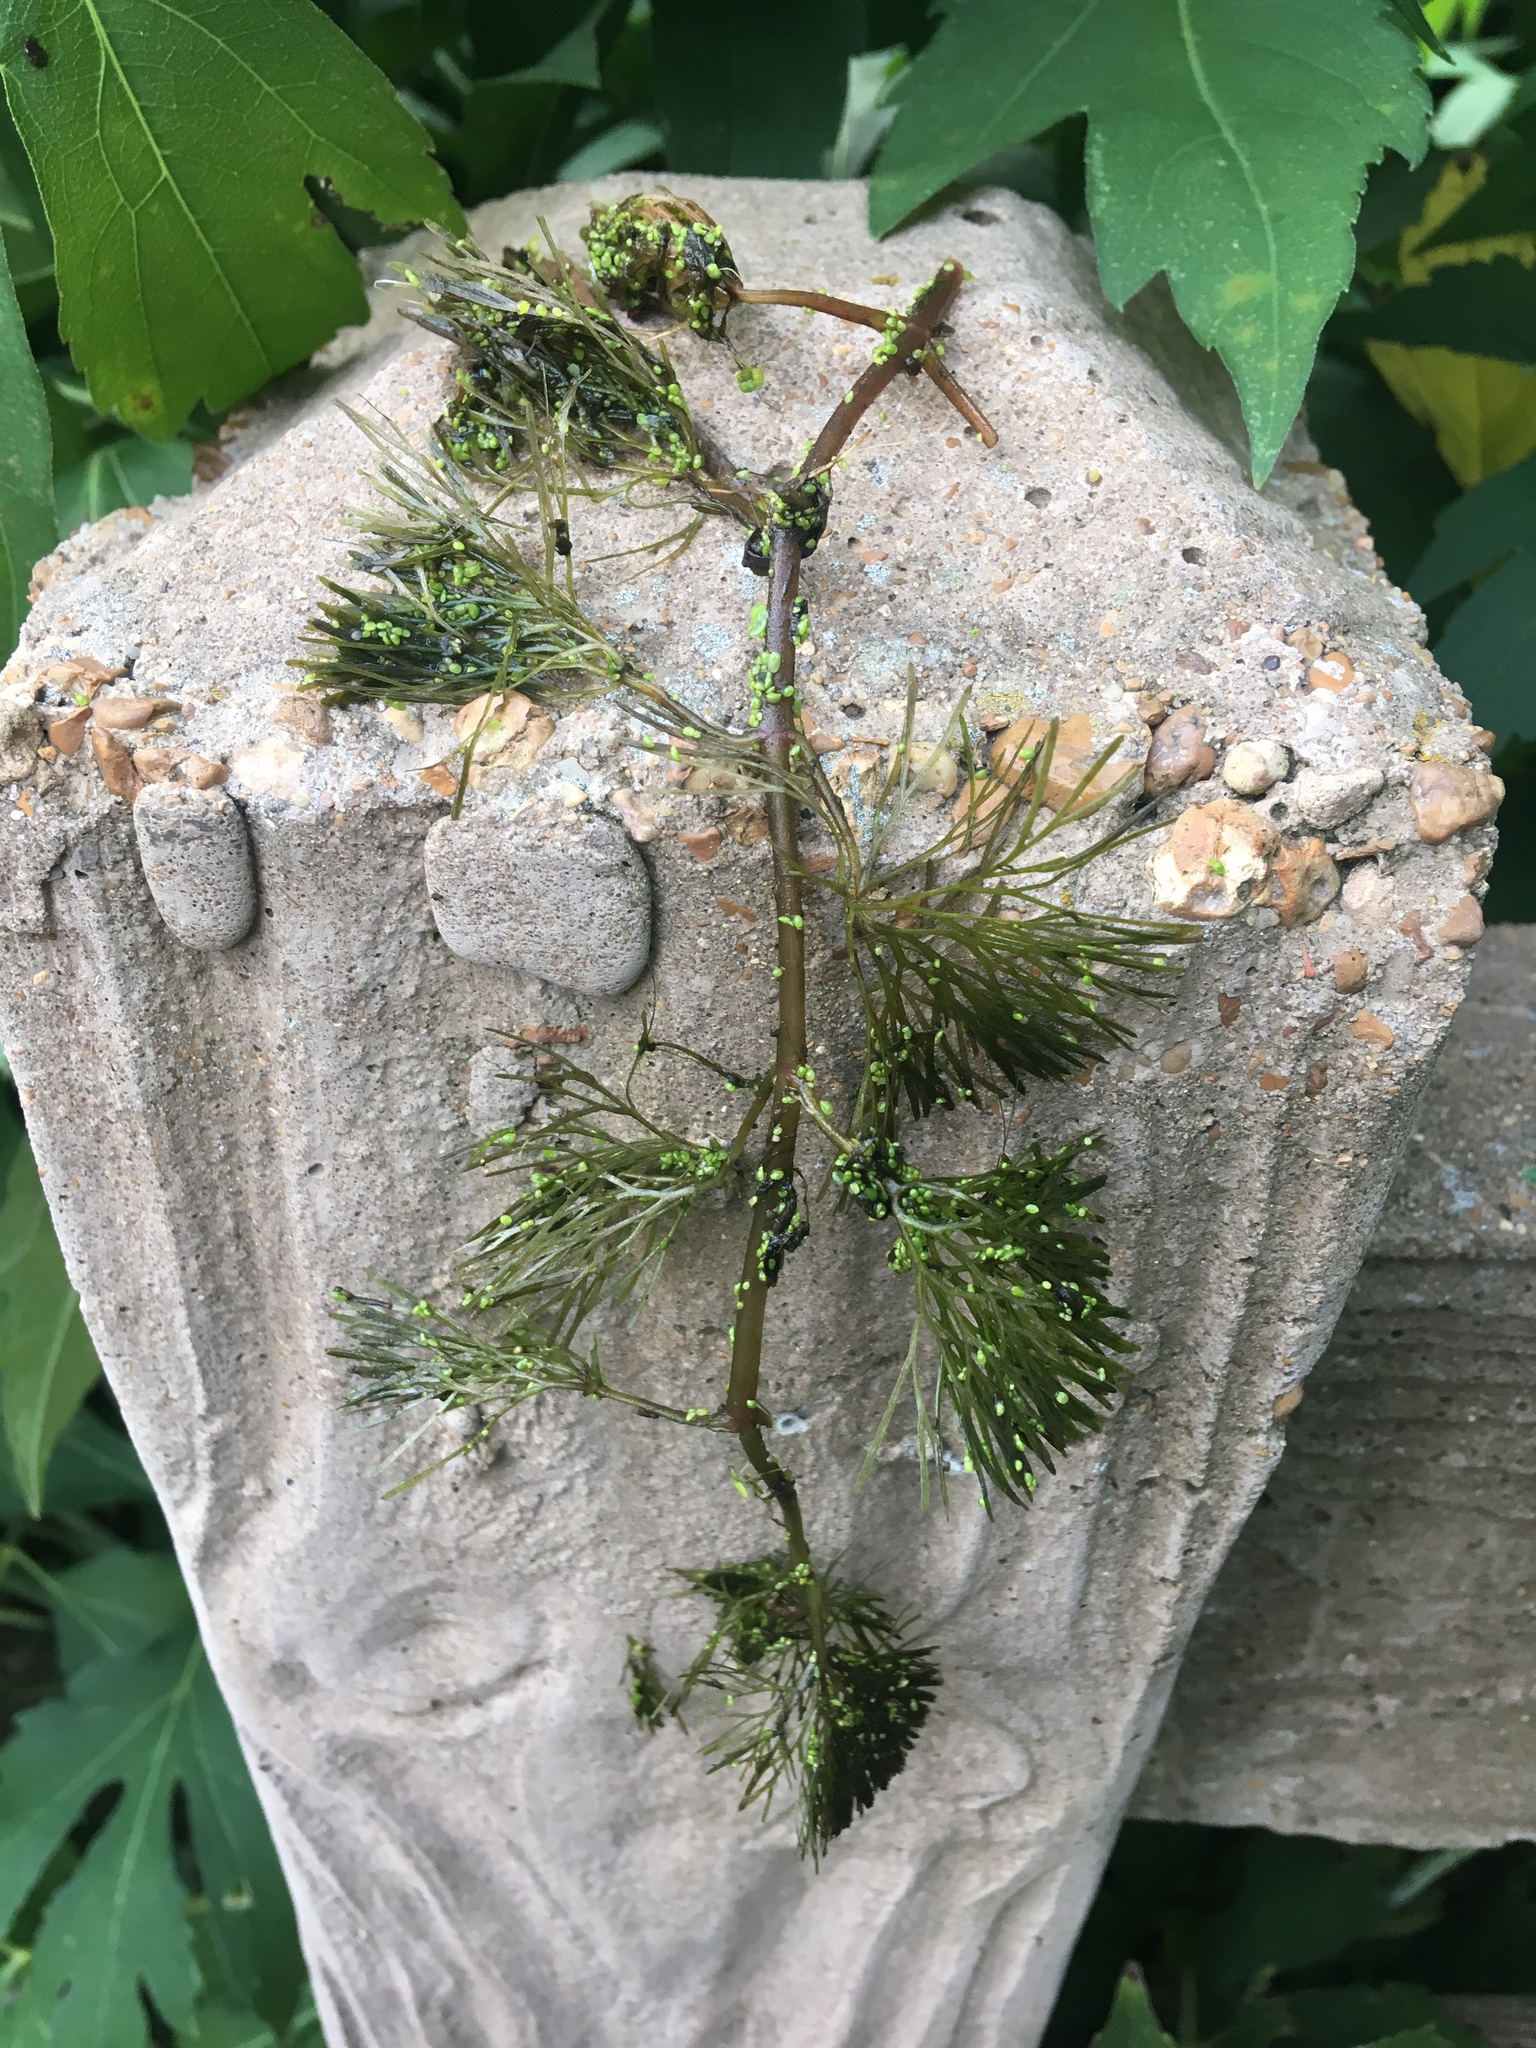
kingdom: Plantae
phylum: Tracheophyta
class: Magnoliopsida
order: Nymphaeales
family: Cabombaceae
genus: Cabomba
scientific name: Cabomba caroliniana
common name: Fanwort
